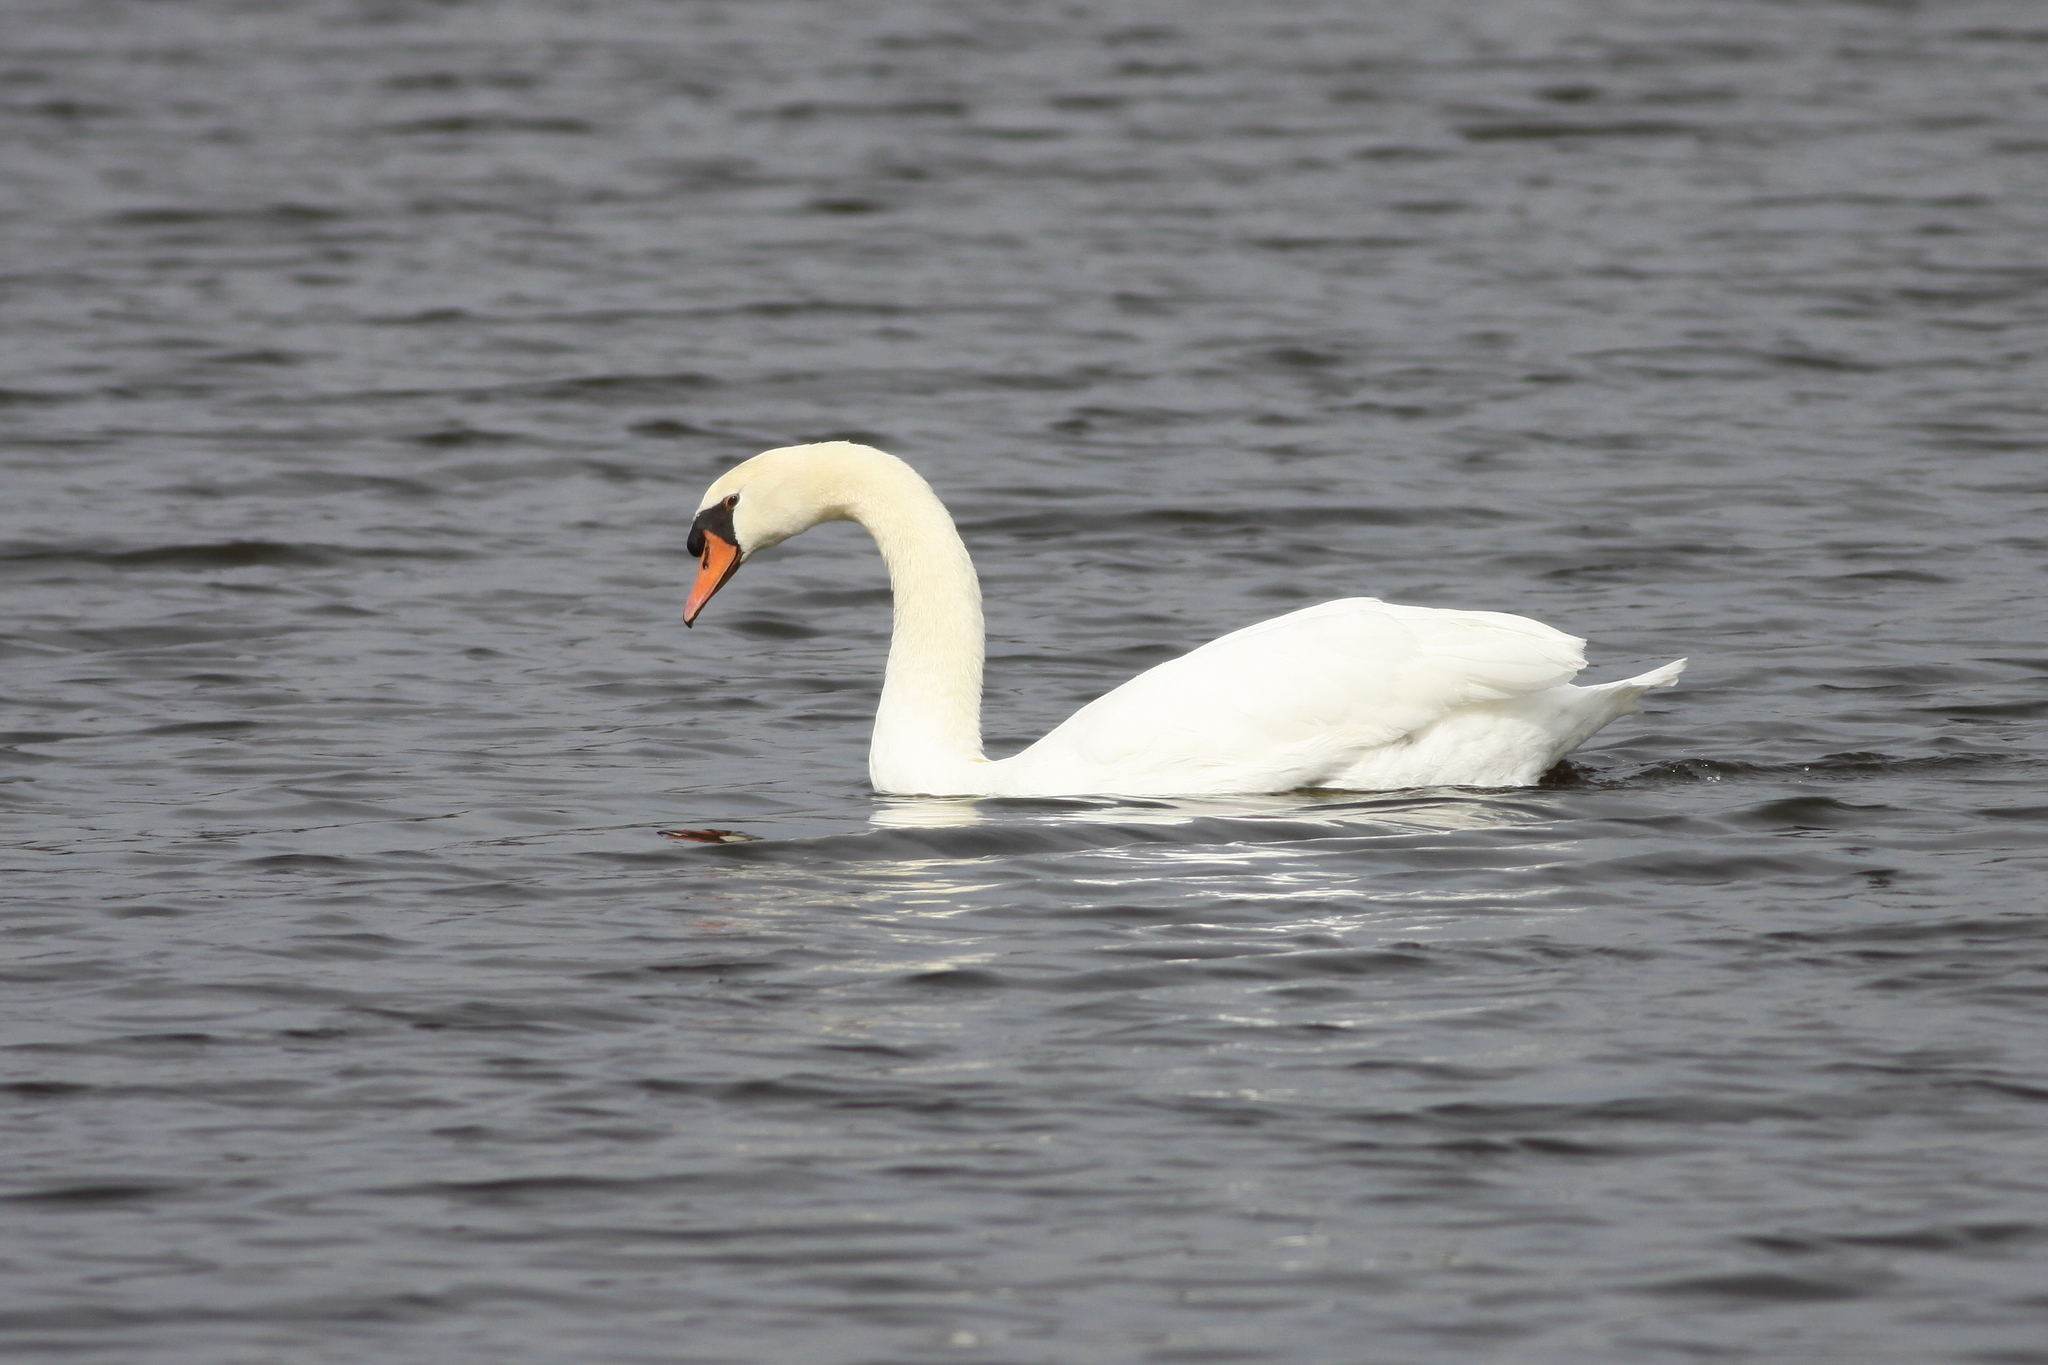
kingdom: Animalia
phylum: Chordata
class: Aves
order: Anseriformes
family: Anatidae
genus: Cygnus
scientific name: Cygnus olor
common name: Mute swan
